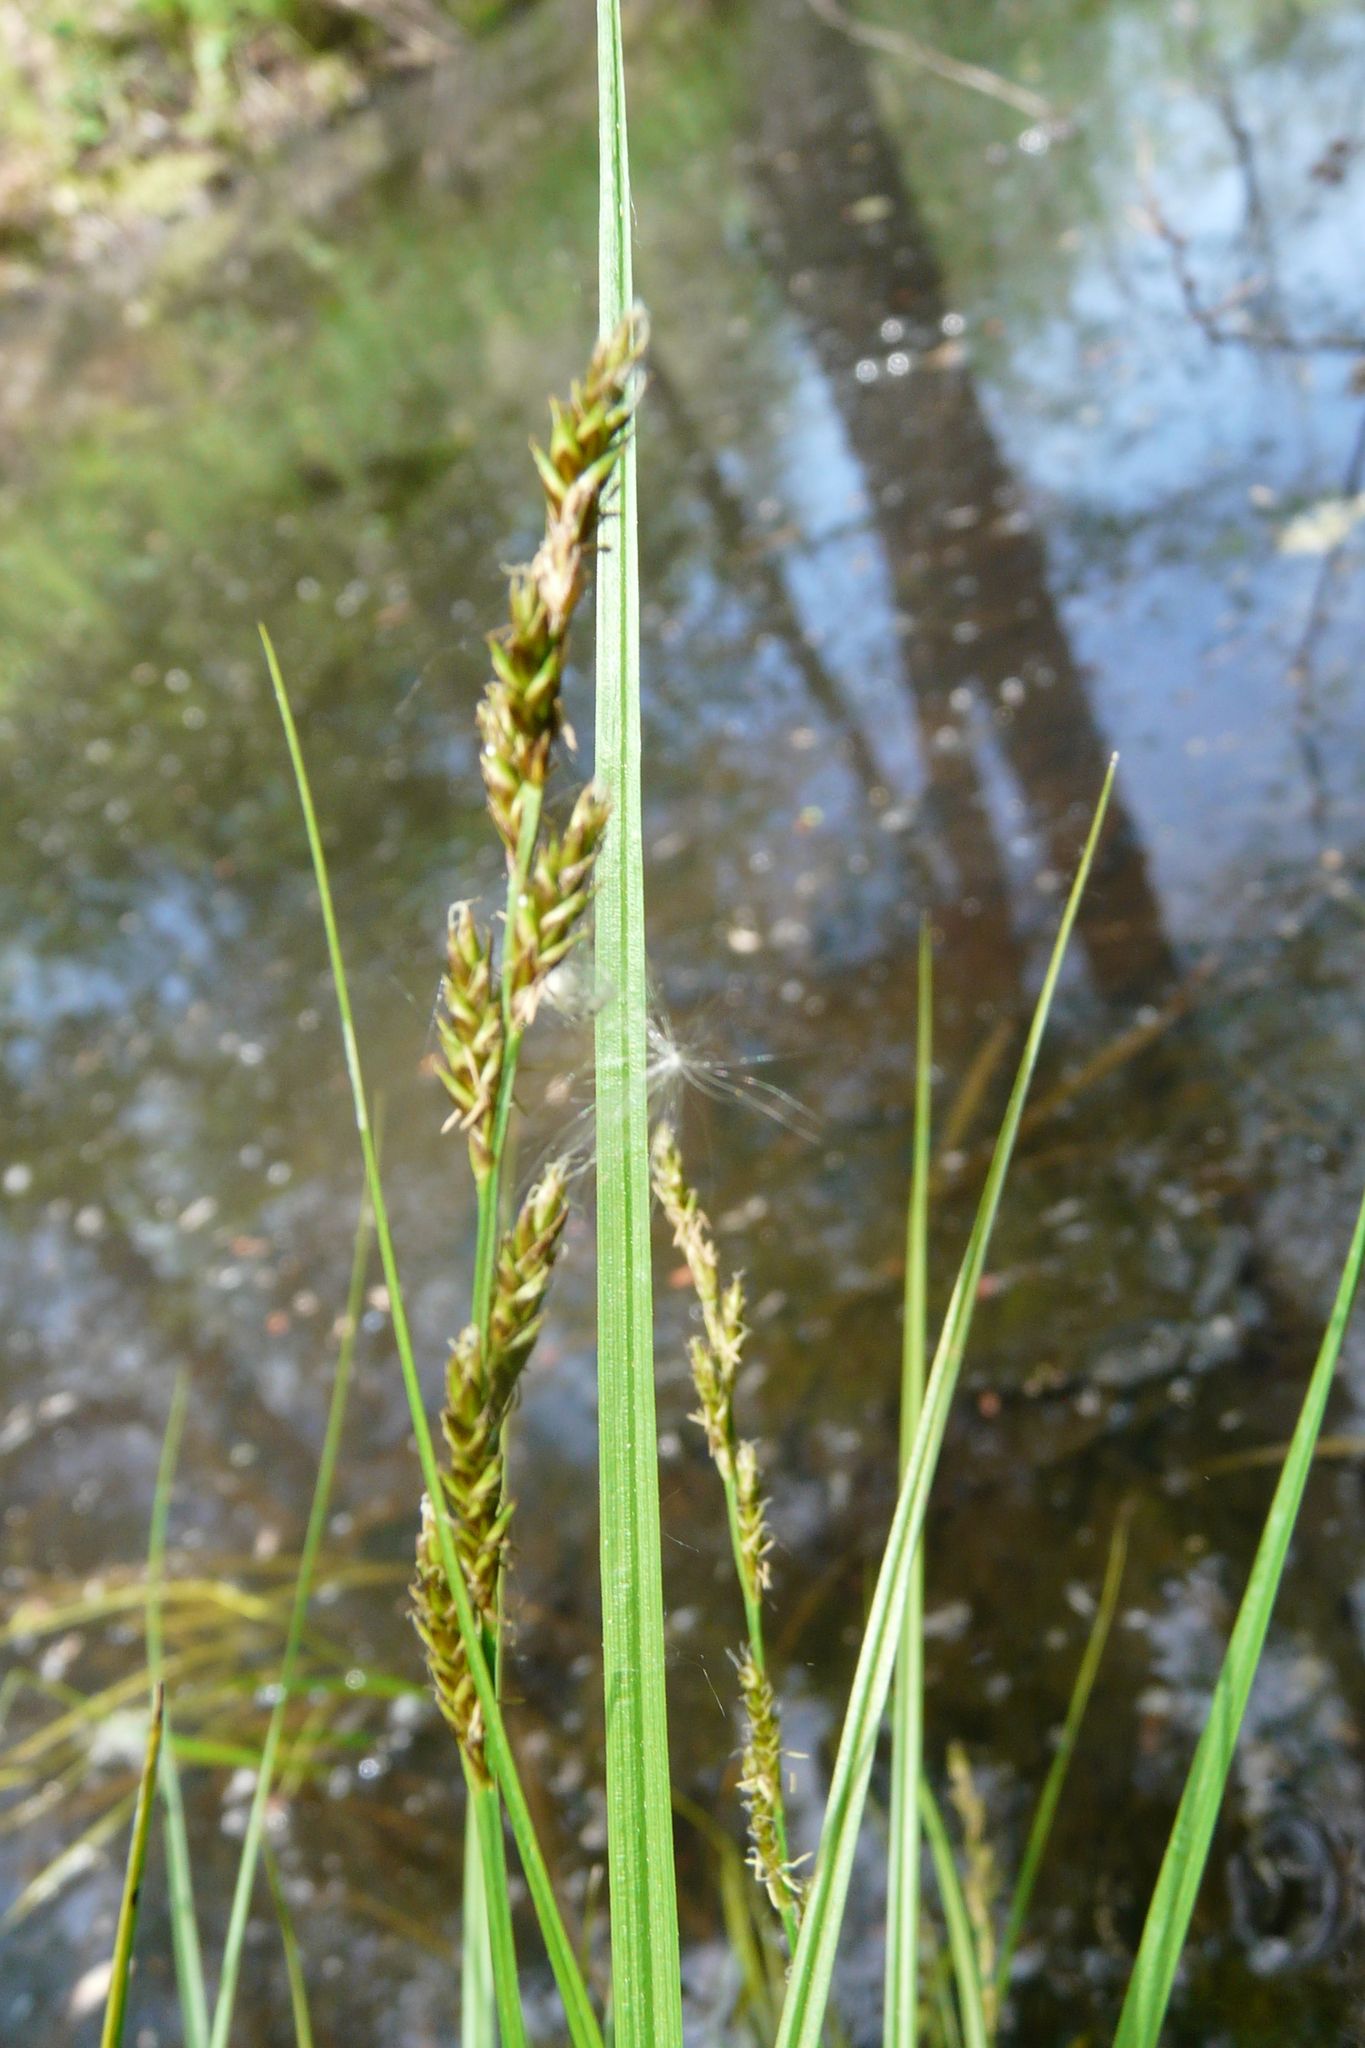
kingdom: Plantae
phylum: Tracheophyta
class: Liliopsida
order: Poales
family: Cyperaceae
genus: Carex
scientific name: Carex elongata
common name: Elongated sedge
